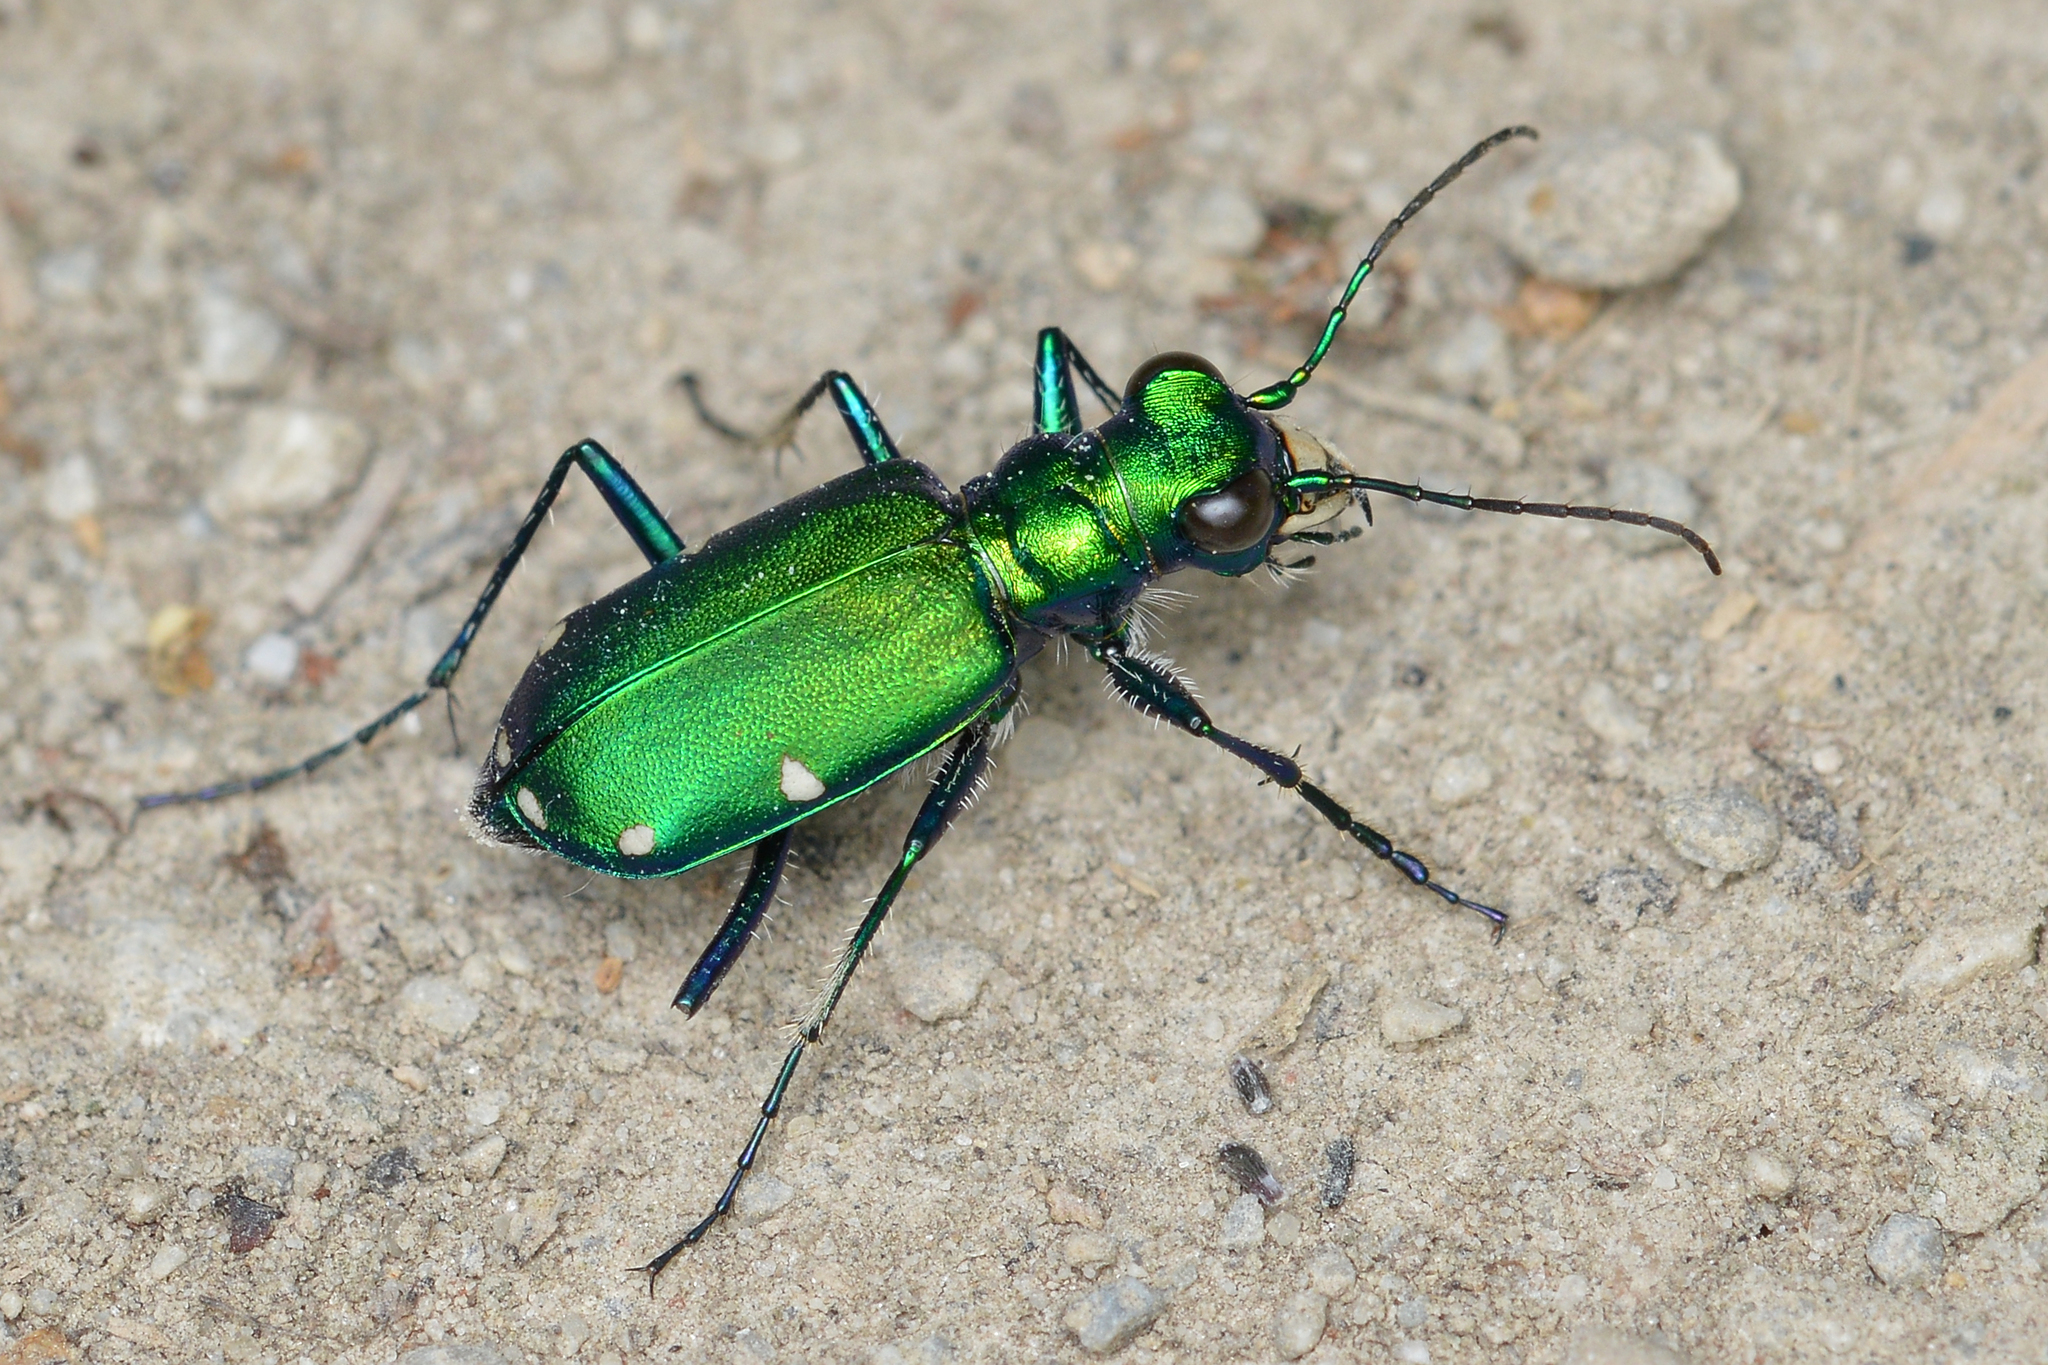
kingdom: Animalia
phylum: Arthropoda
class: Insecta
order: Coleoptera
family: Carabidae
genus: Cicindela
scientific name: Cicindela sexguttata
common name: Six-spotted tiger beetle
